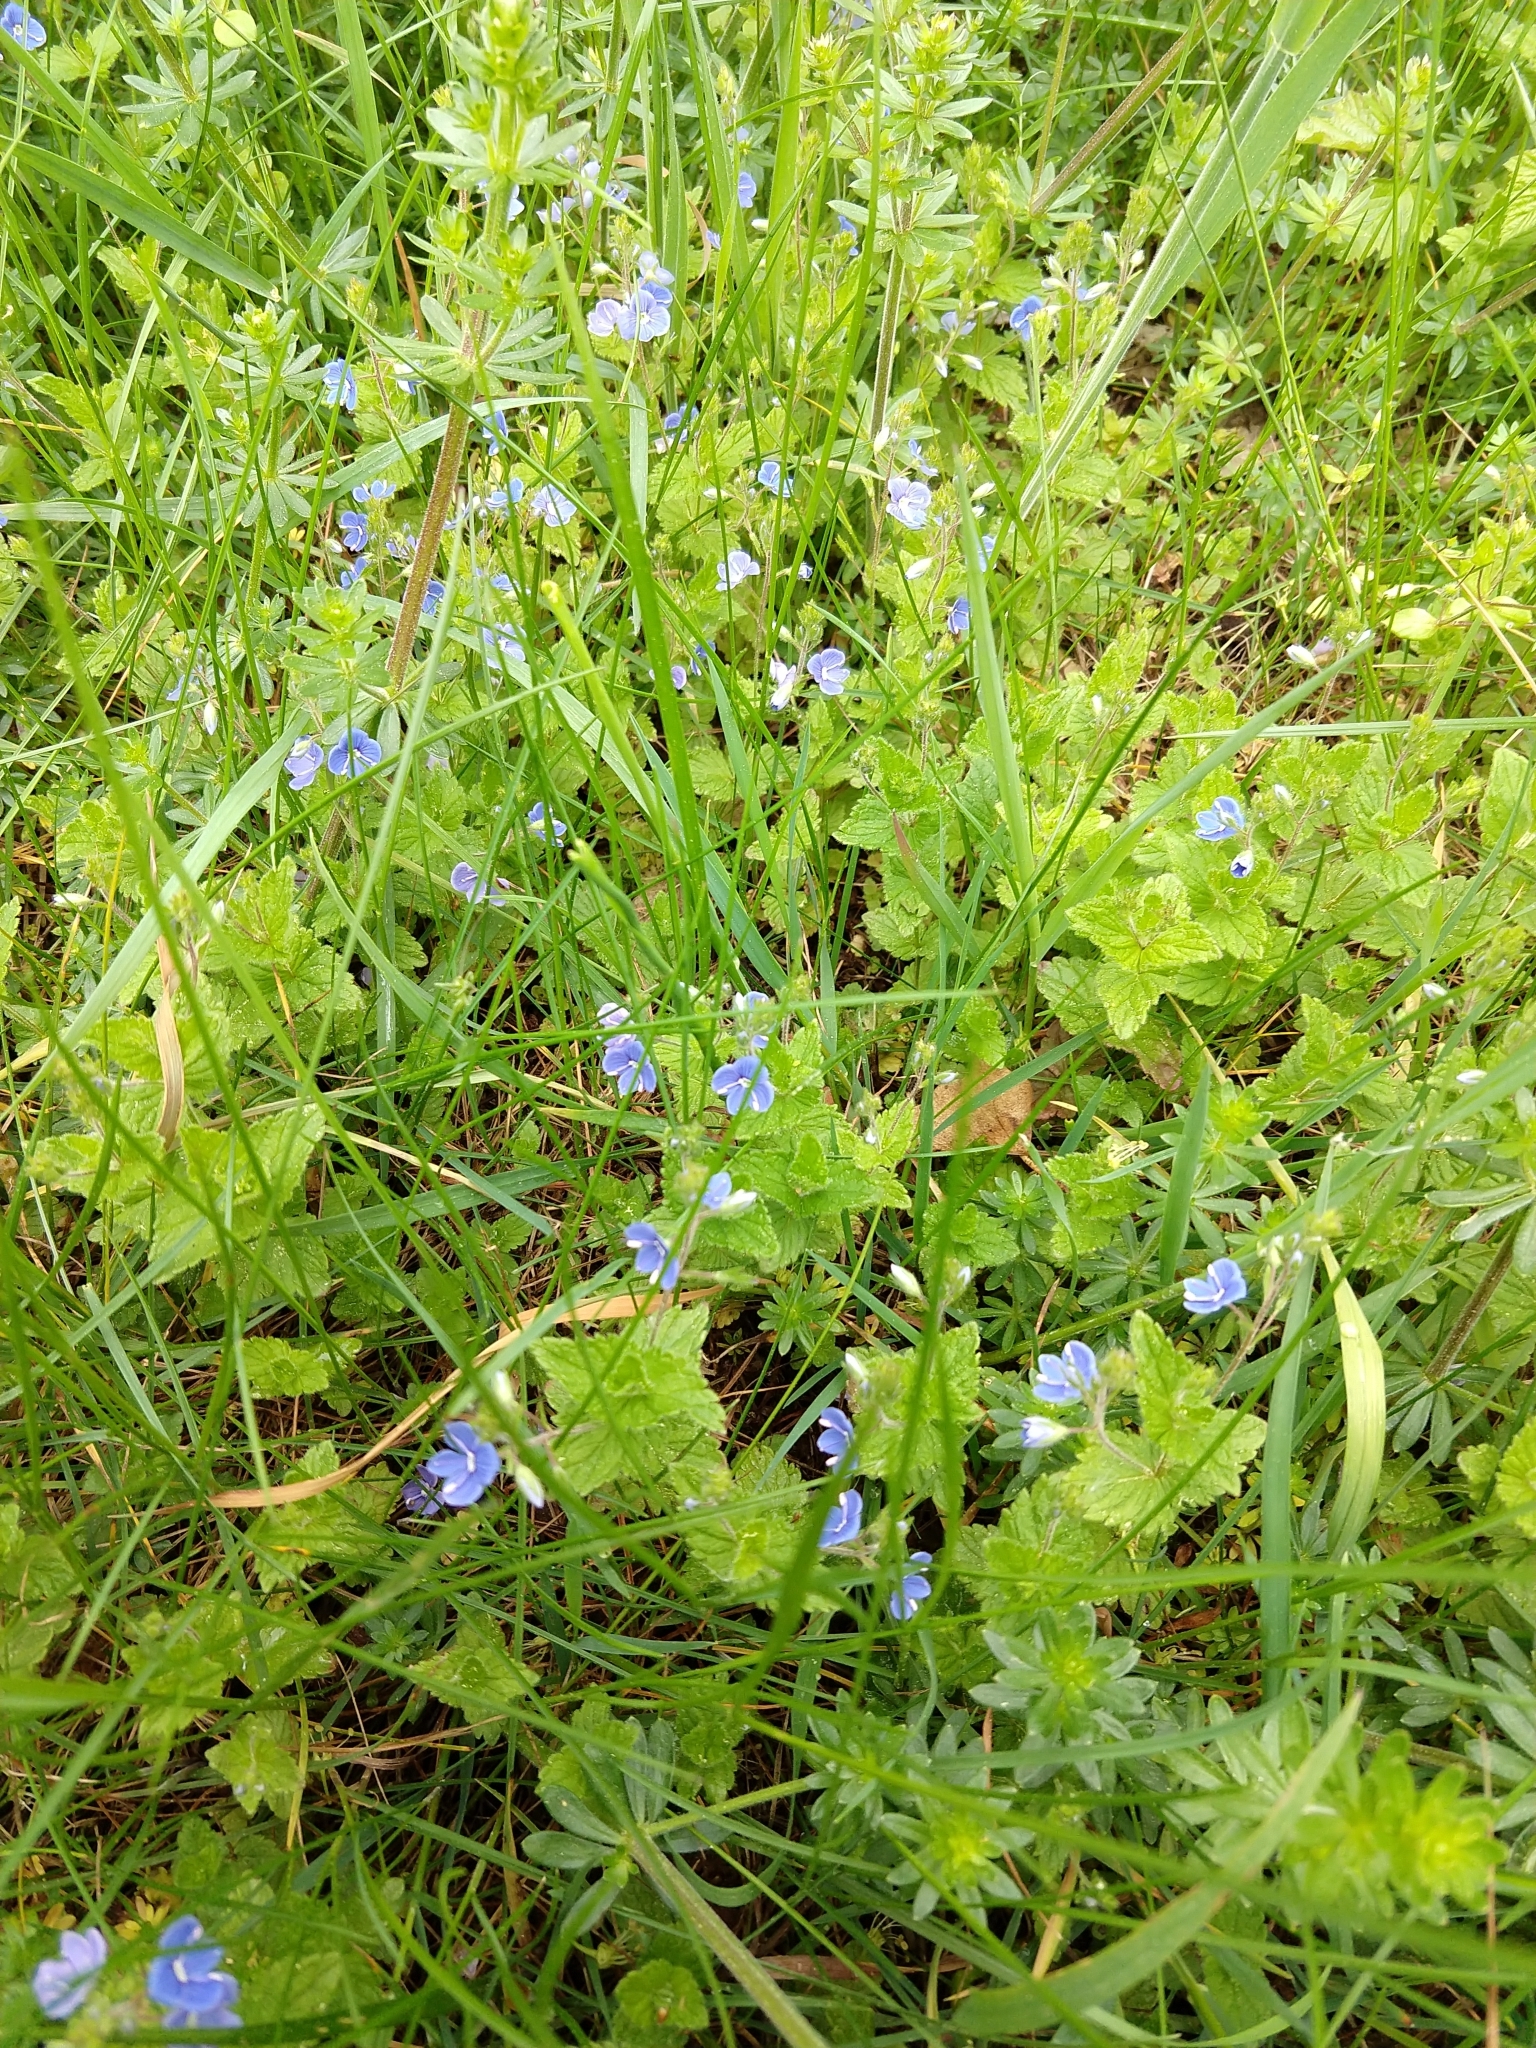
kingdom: Plantae
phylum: Tracheophyta
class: Magnoliopsida
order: Lamiales
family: Plantaginaceae
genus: Veronica
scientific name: Veronica chamaedrys
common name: Germander speedwell
